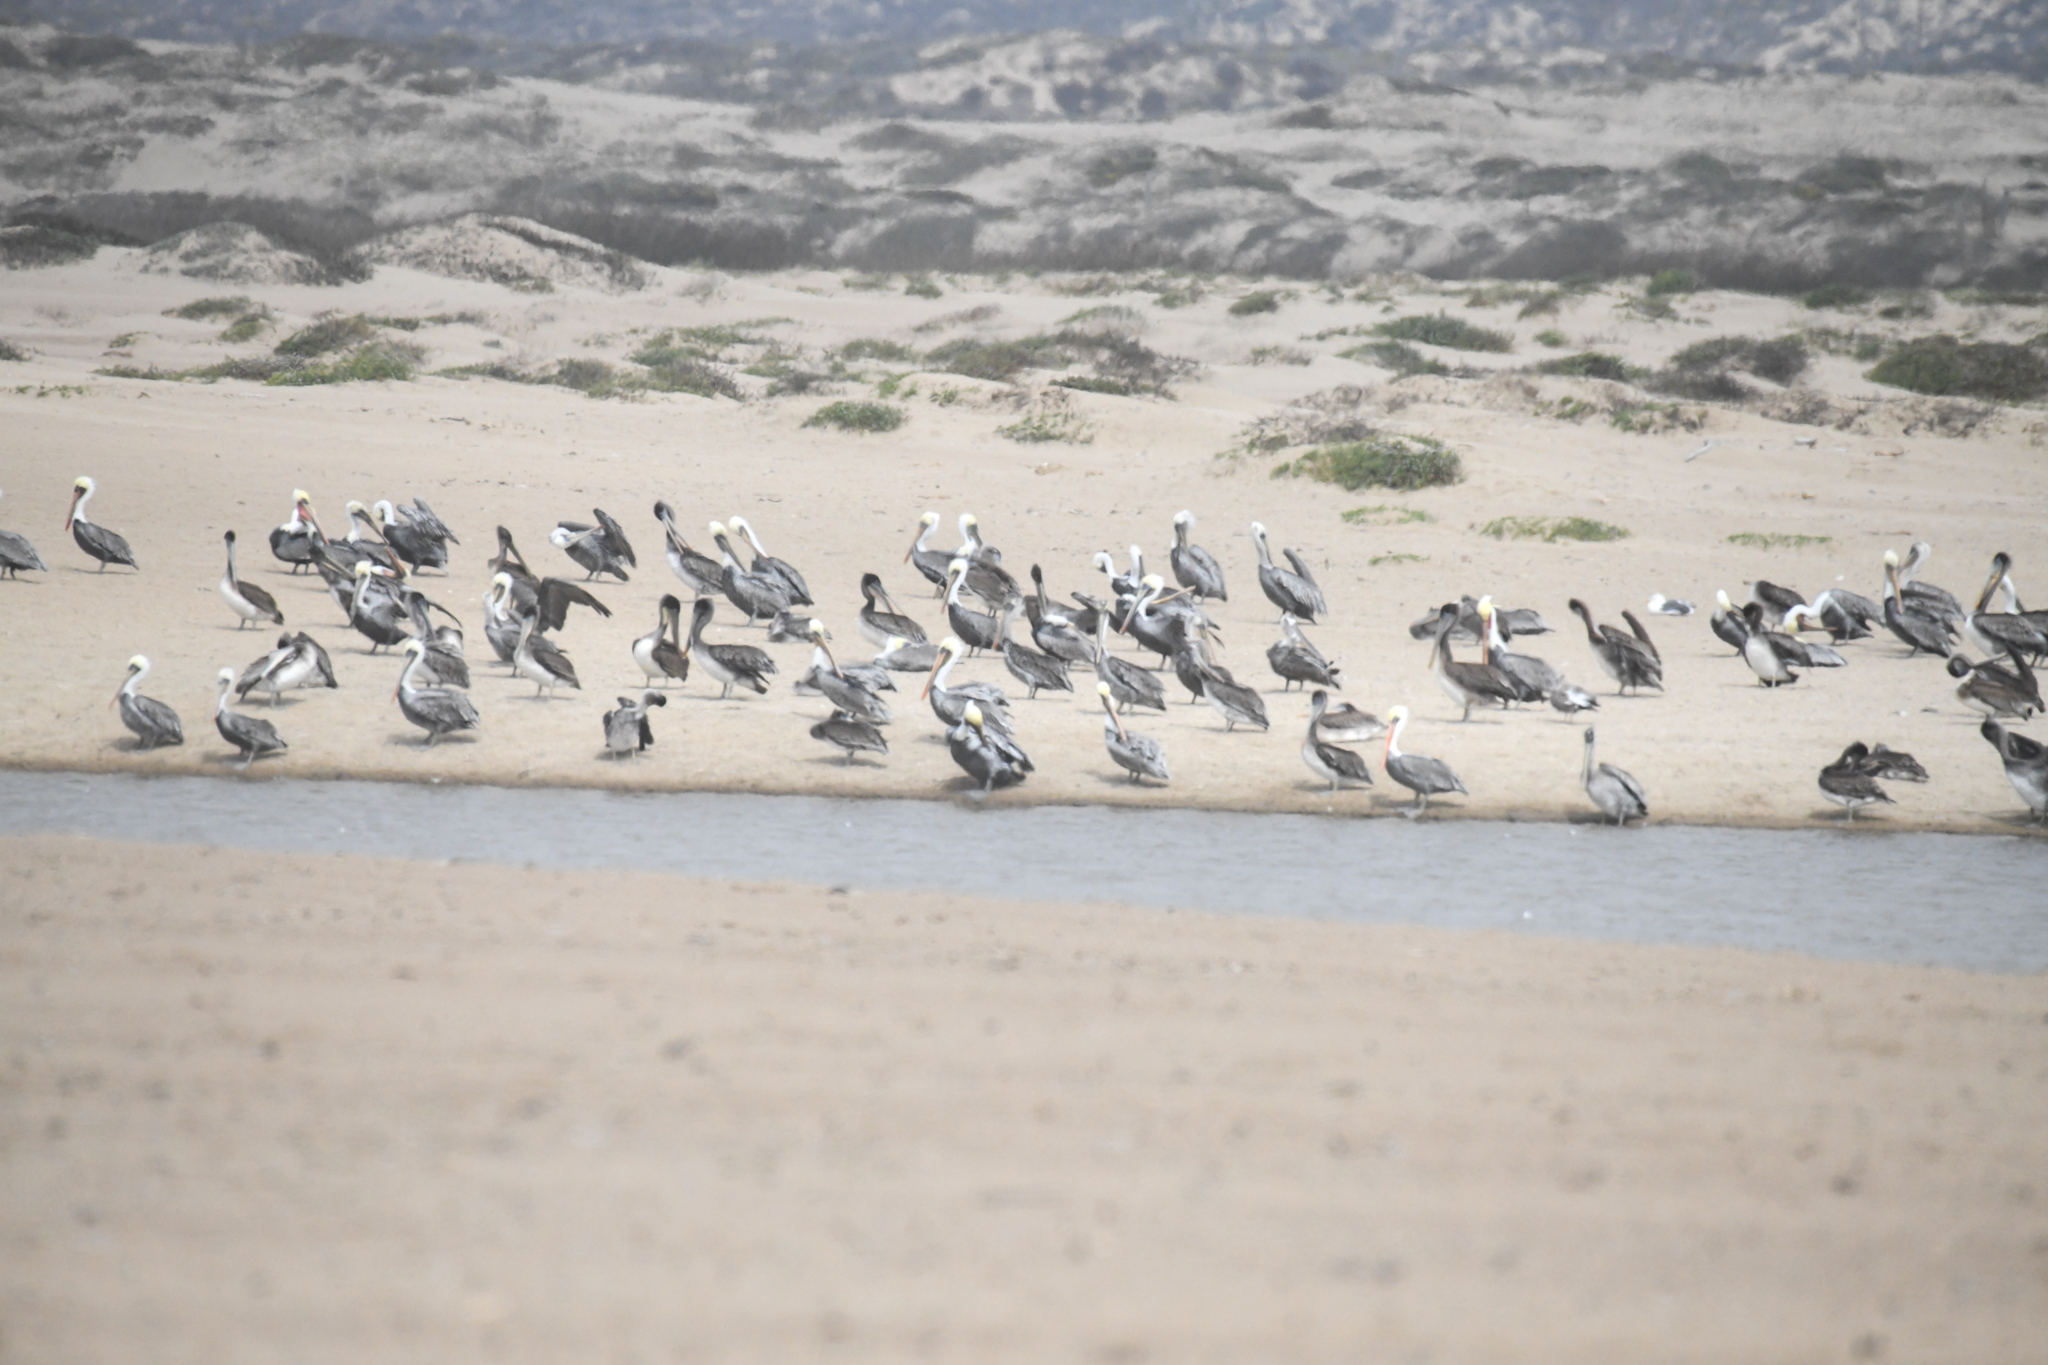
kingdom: Animalia
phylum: Chordata
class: Aves
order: Pelecaniformes
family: Pelecanidae
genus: Pelecanus
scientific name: Pelecanus occidentalis
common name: Brown pelican
